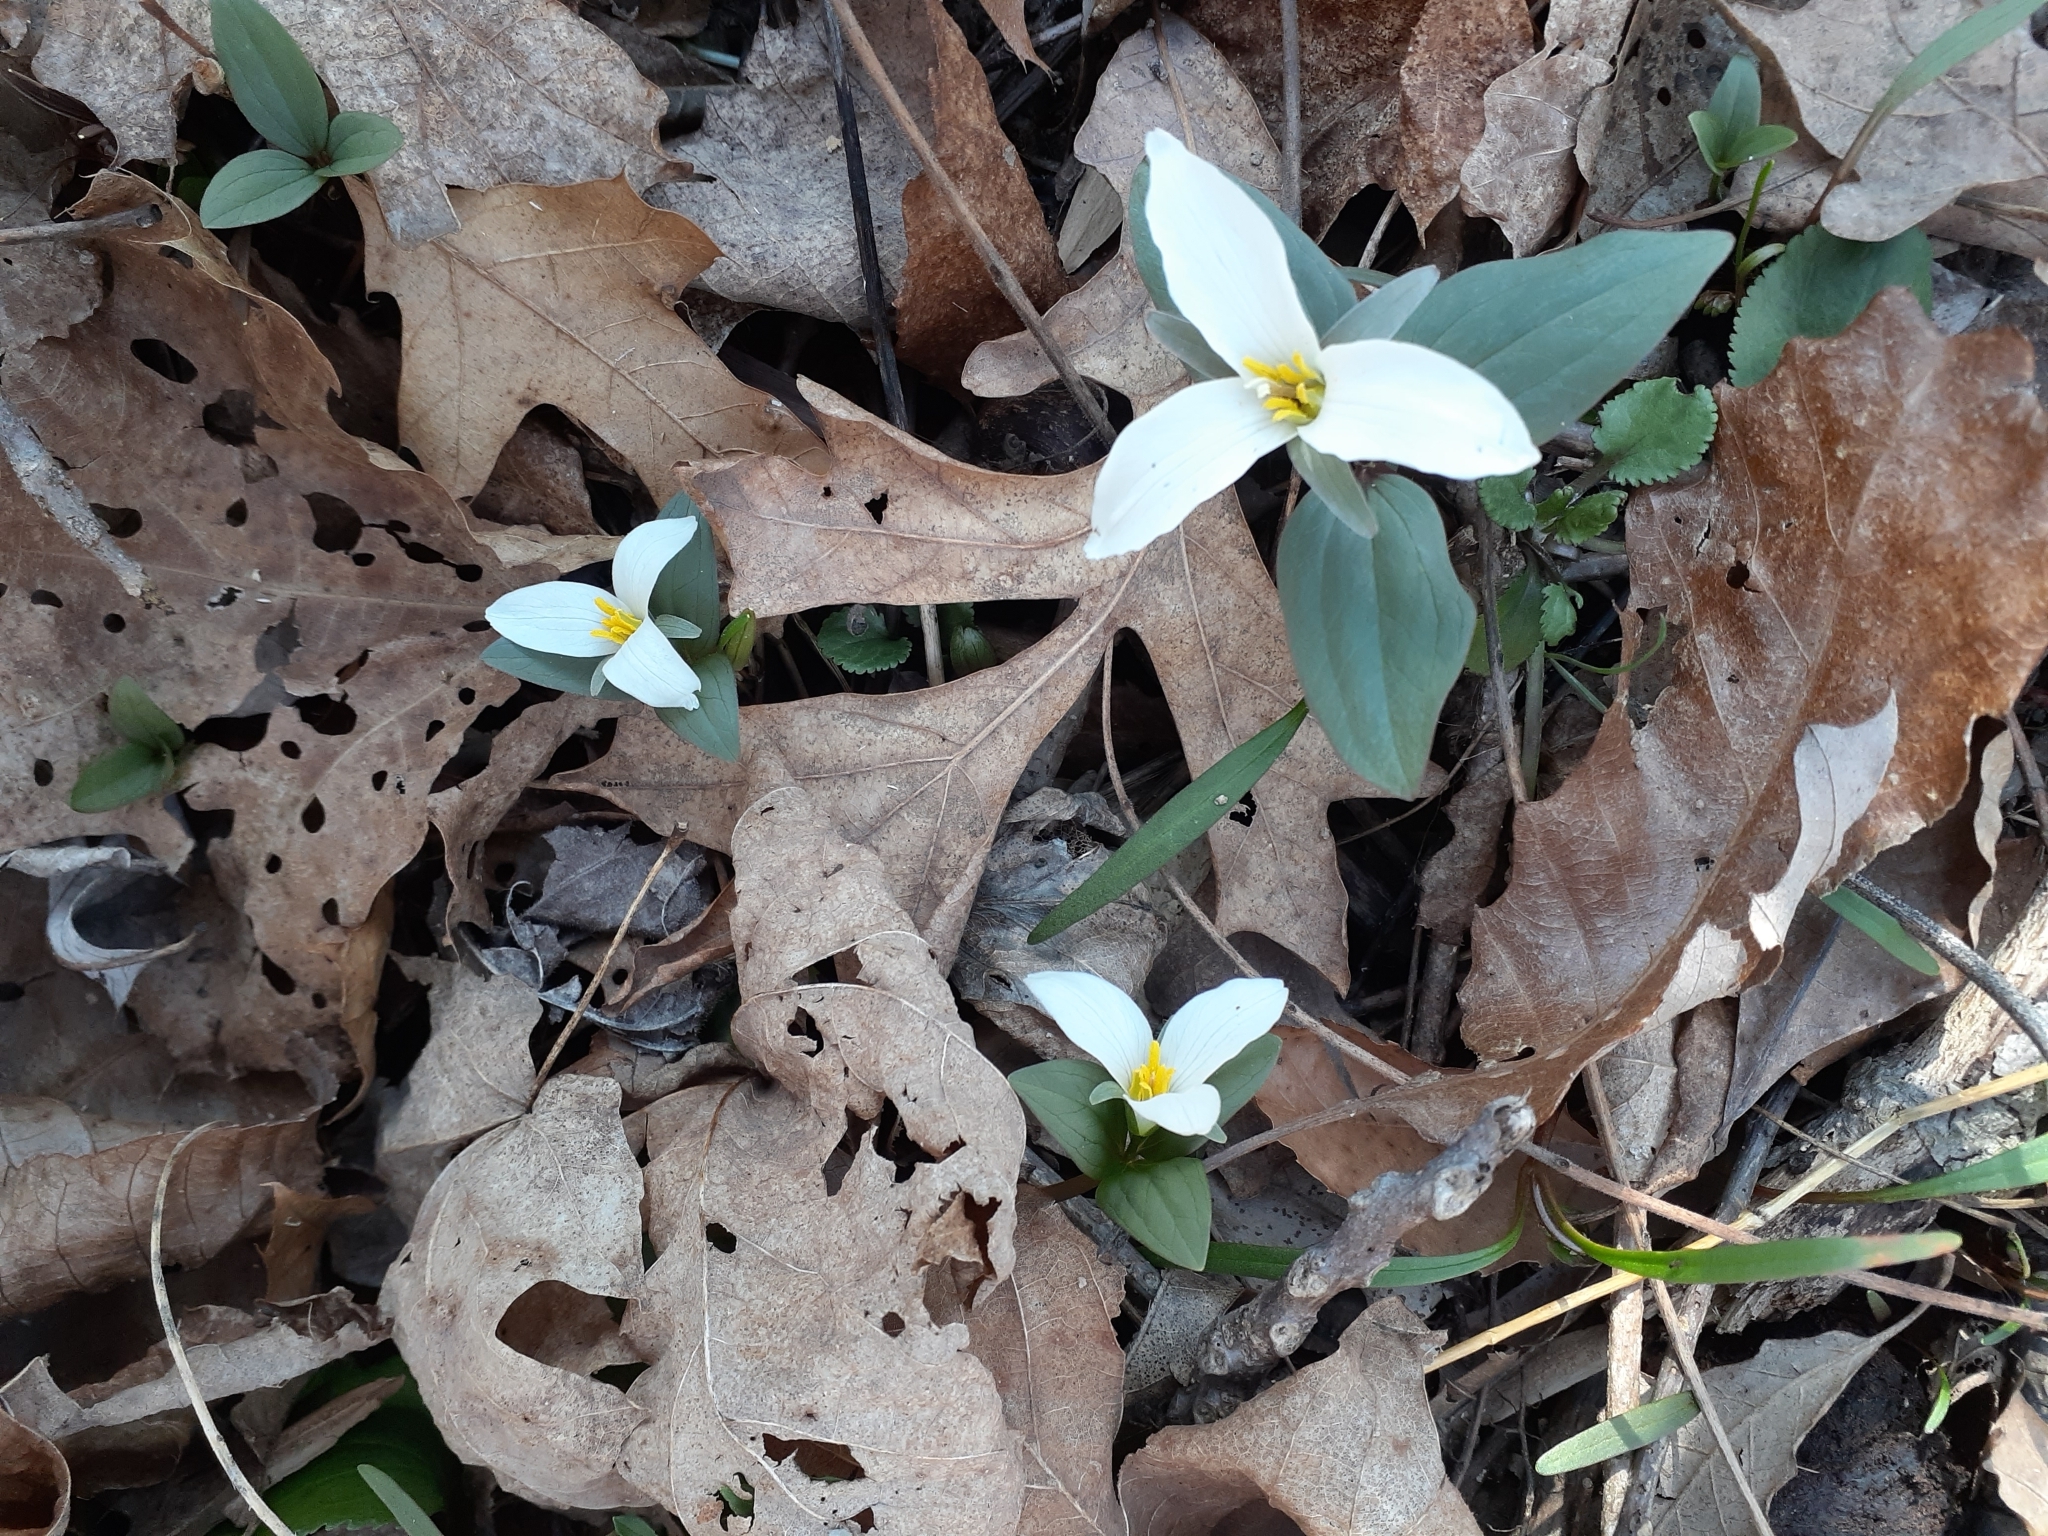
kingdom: Plantae
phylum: Tracheophyta
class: Liliopsida
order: Liliales
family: Melanthiaceae
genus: Trillium
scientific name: Trillium nivale
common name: Dwarf white trillium
